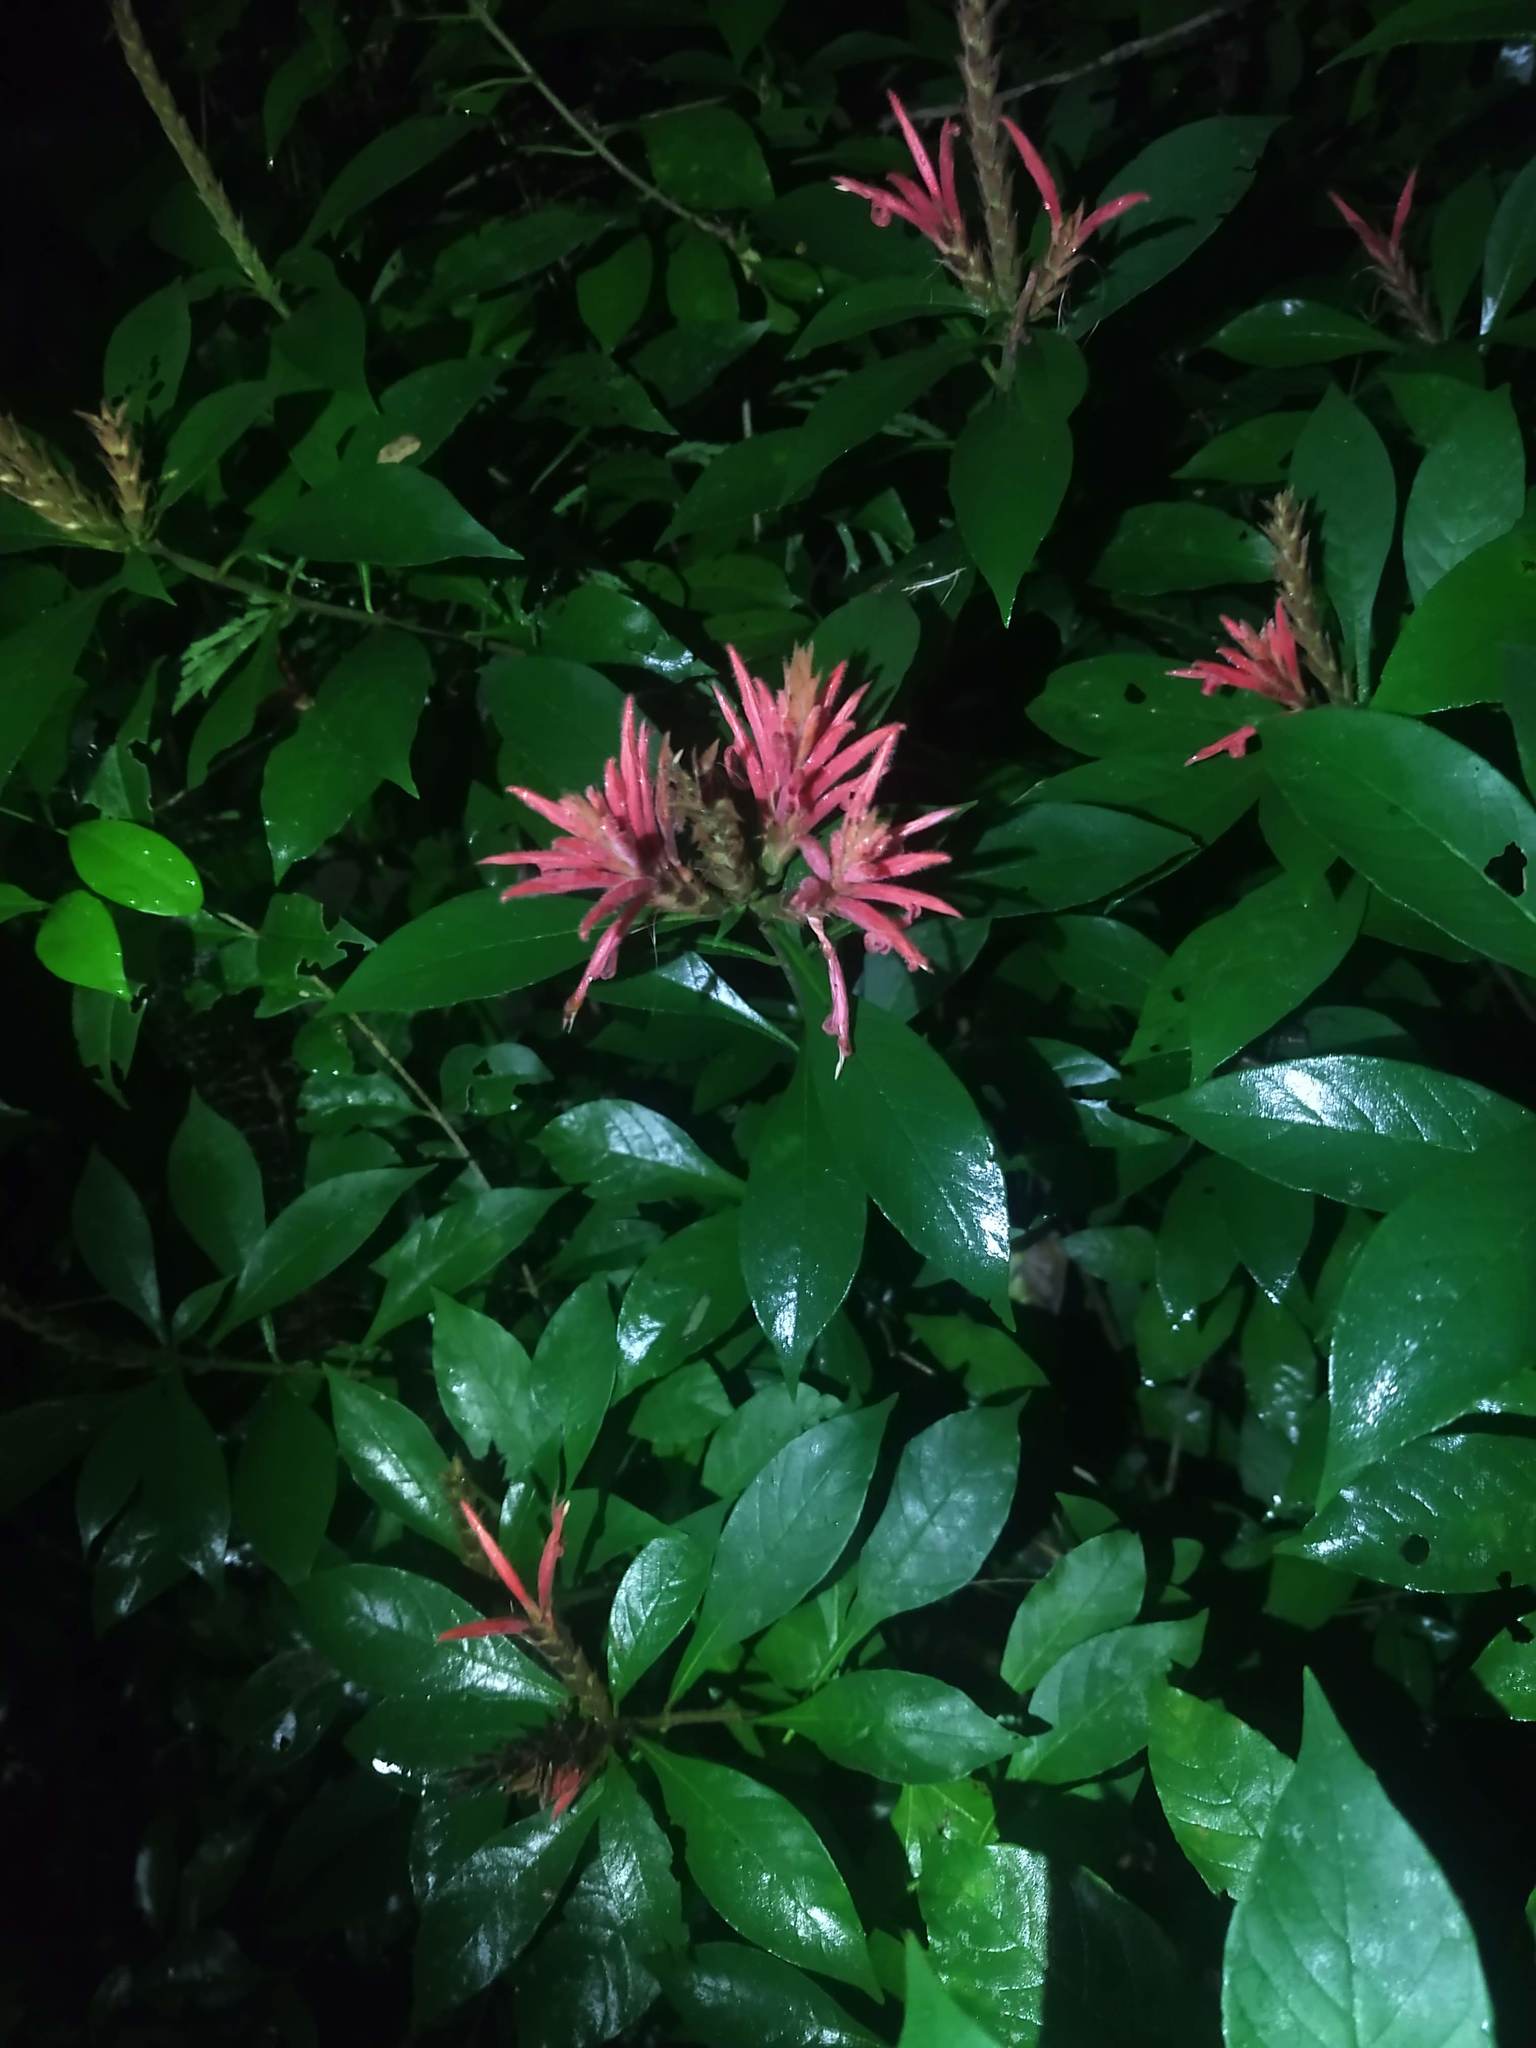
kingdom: Plantae
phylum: Tracheophyta
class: Magnoliopsida
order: Lamiales
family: Acanthaceae
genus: Aphelandra
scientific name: Aphelandra scabra
